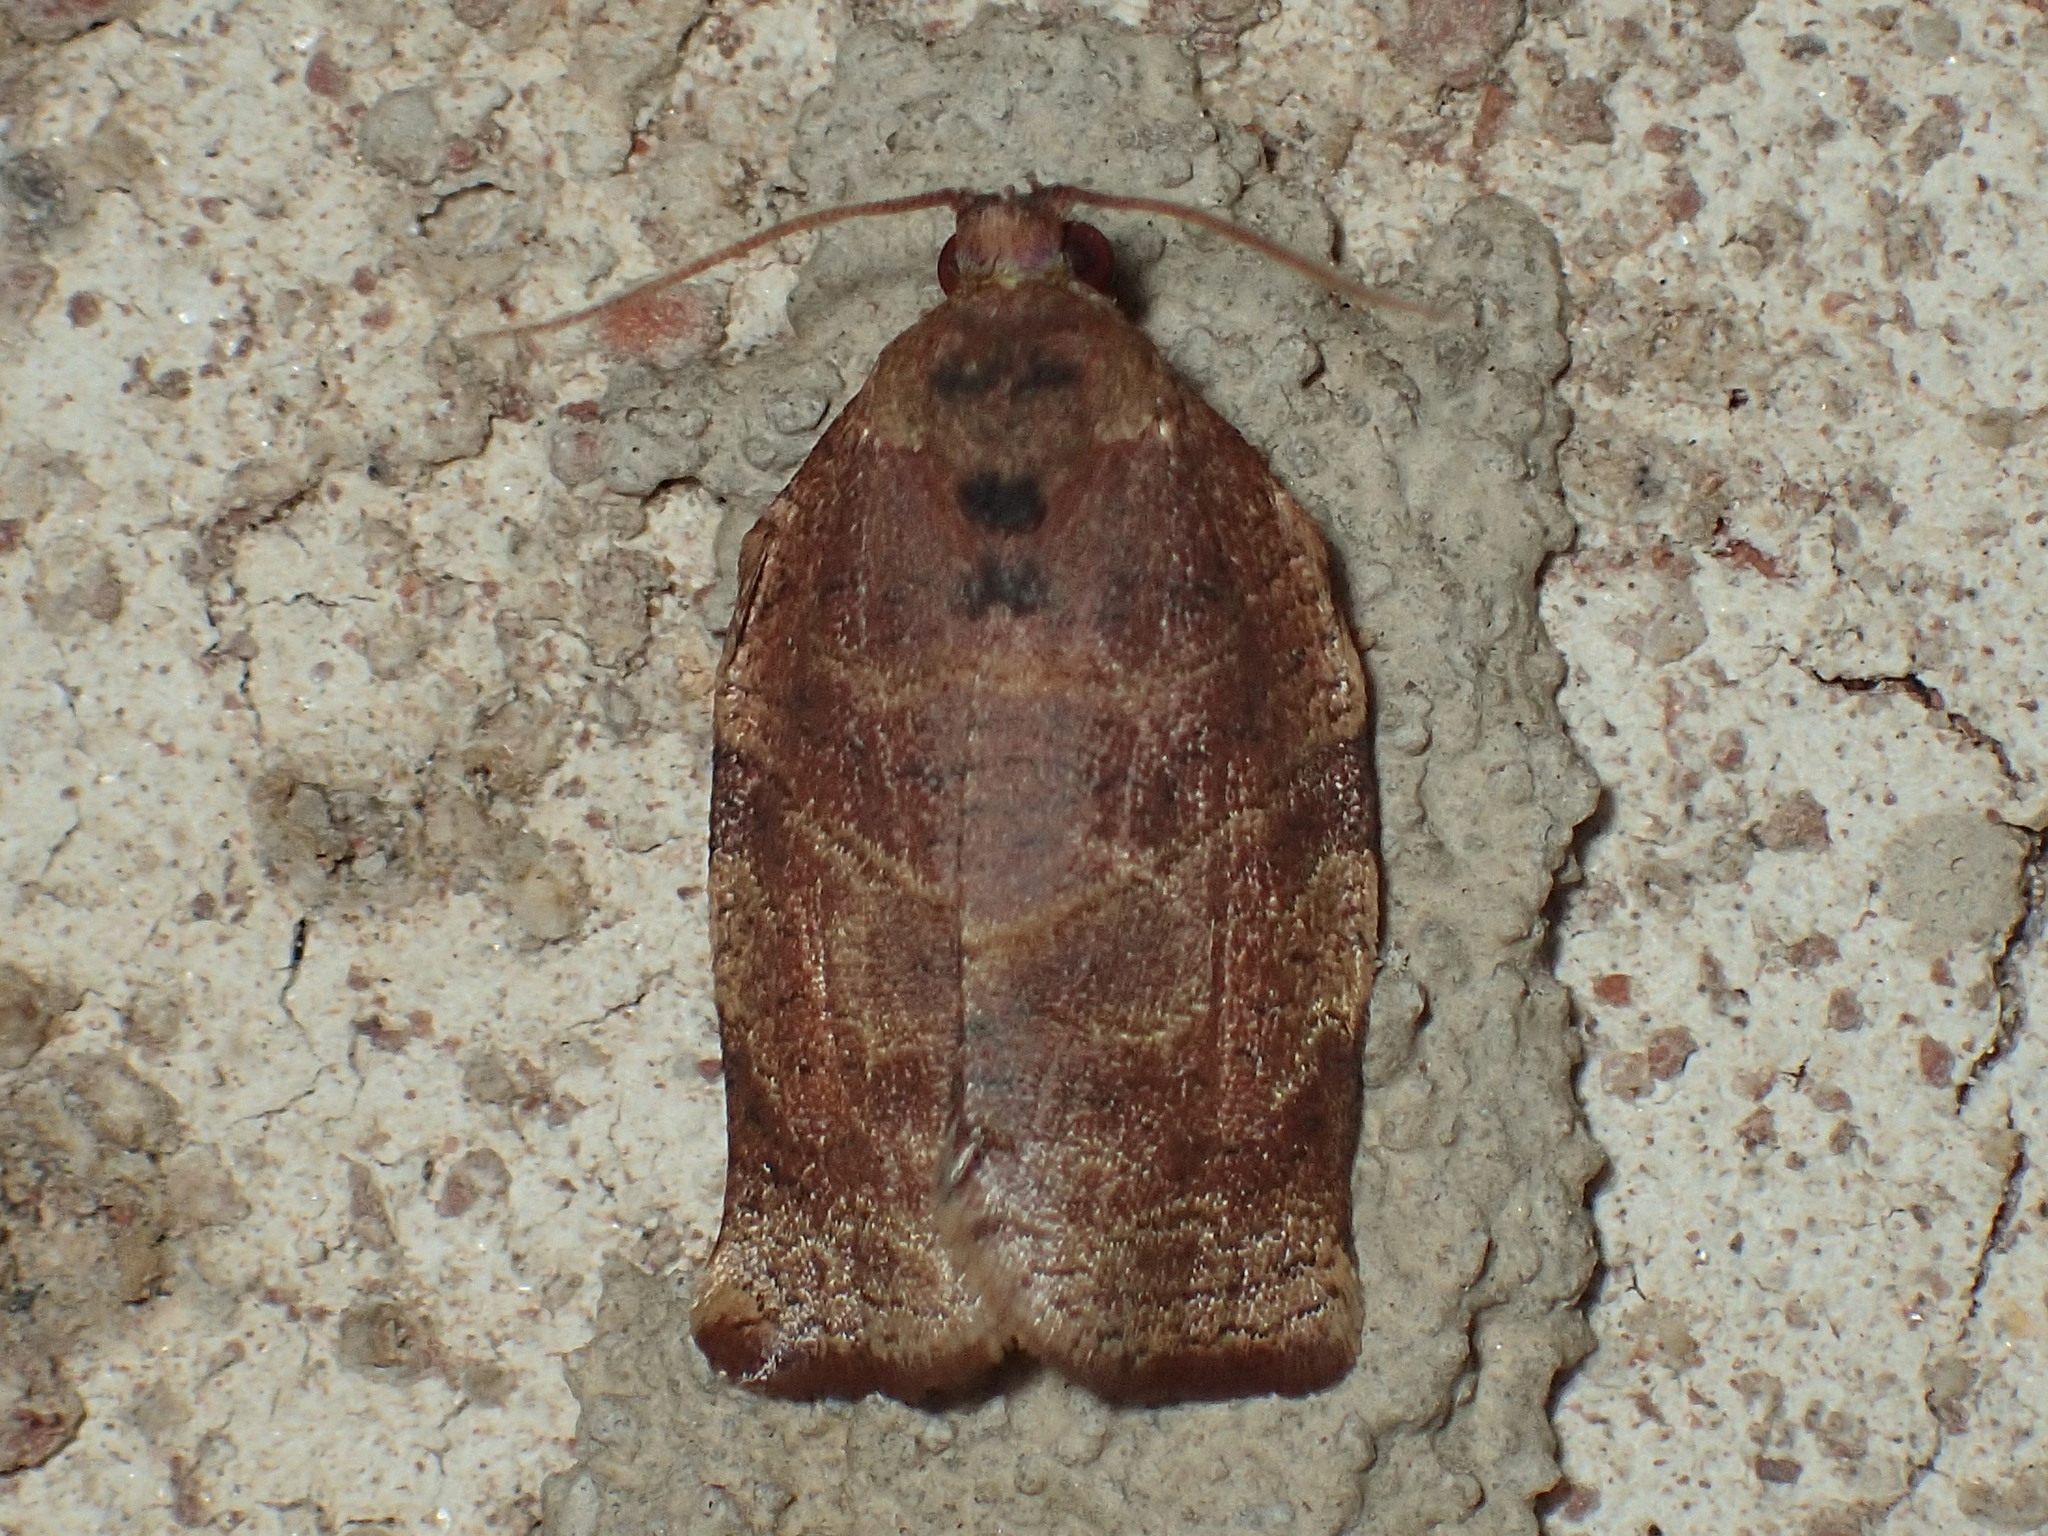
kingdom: Animalia
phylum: Arthropoda
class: Insecta
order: Lepidoptera
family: Tortricidae
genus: Choristoneura
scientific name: Choristoneura rosaceana
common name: Oblique-banded leafroller moth
